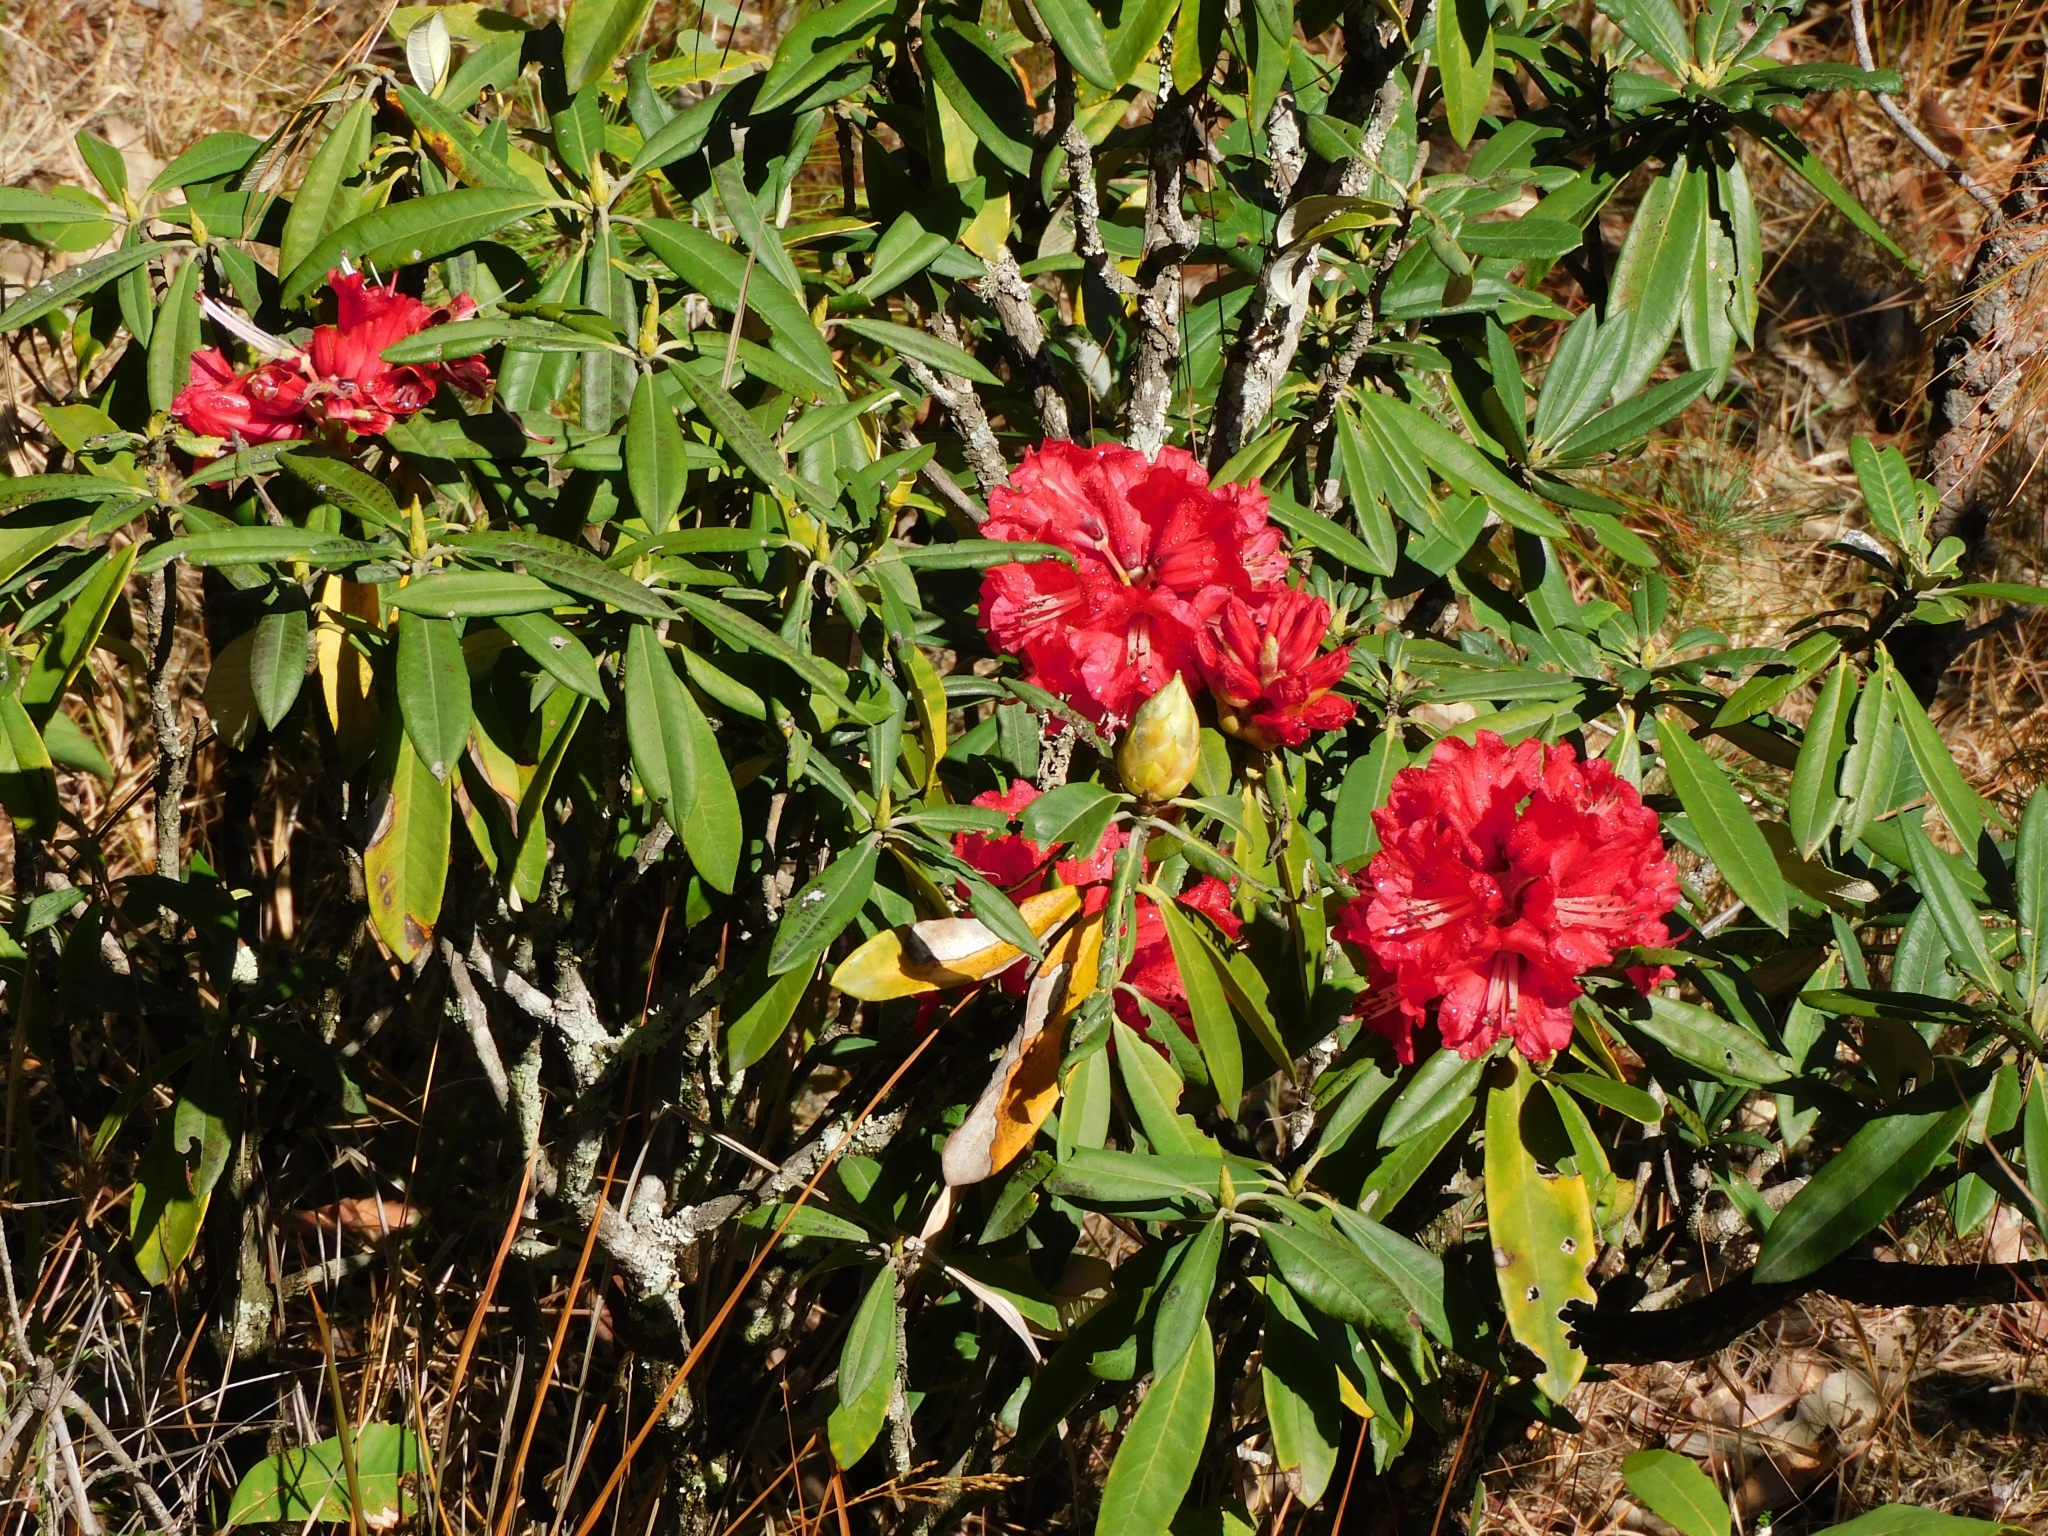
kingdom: Plantae
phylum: Tracheophyta
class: Magnoliopsida
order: Ericales
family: Ericaceae
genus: Rhododendron
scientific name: Rhododendron arboreum
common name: Tree rhododendron
